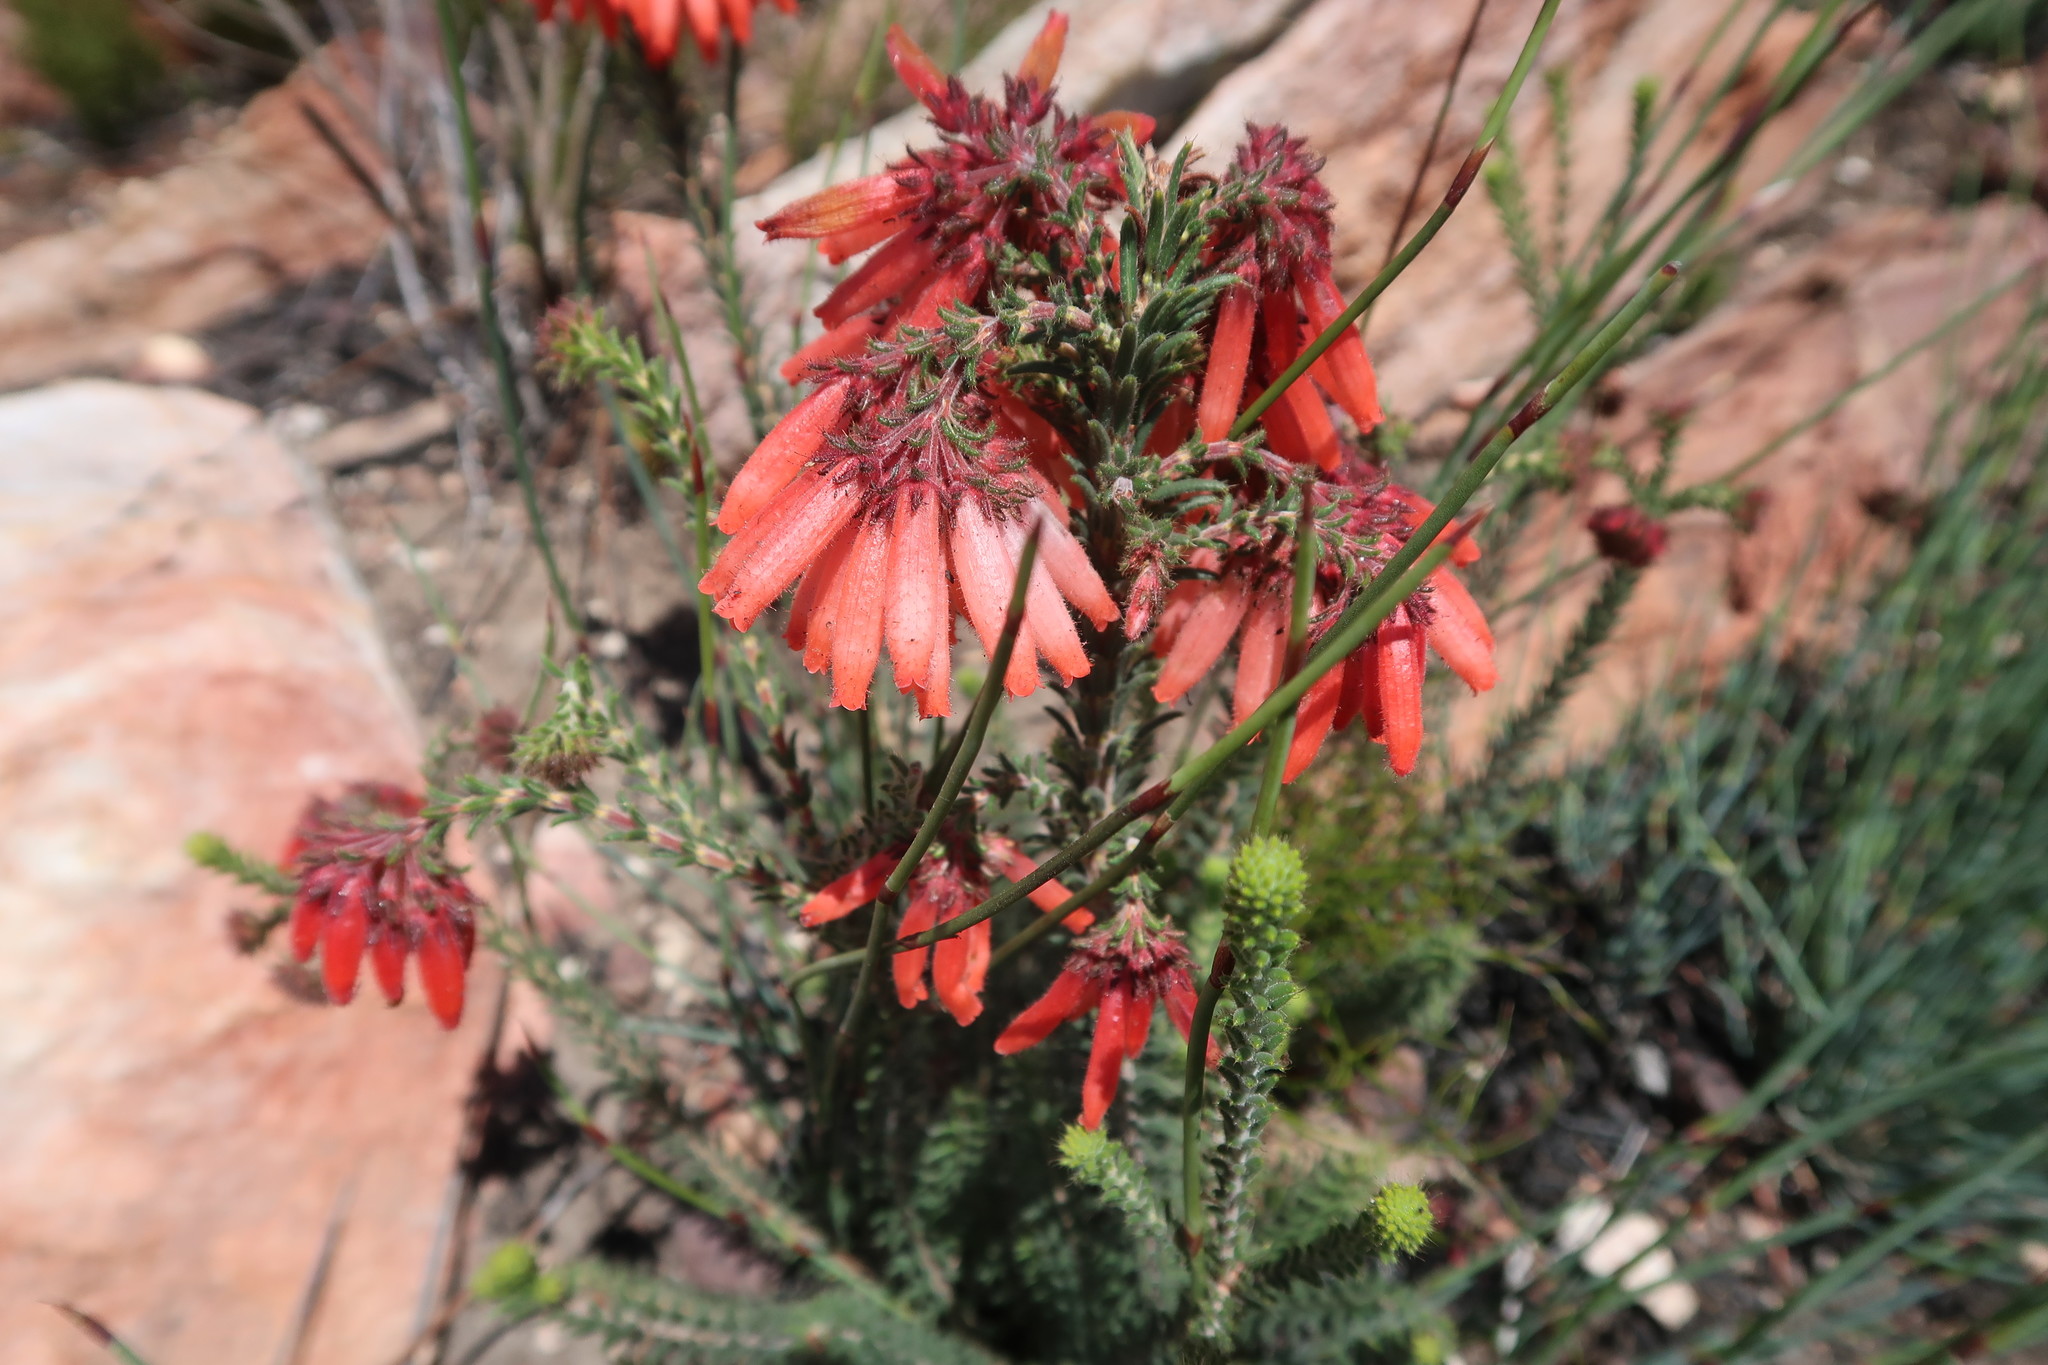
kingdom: Plantae
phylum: Tracheophyta
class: Magnoliopsida
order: Ericales
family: Ericaceae
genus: Erica
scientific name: Erica cerinthoides
